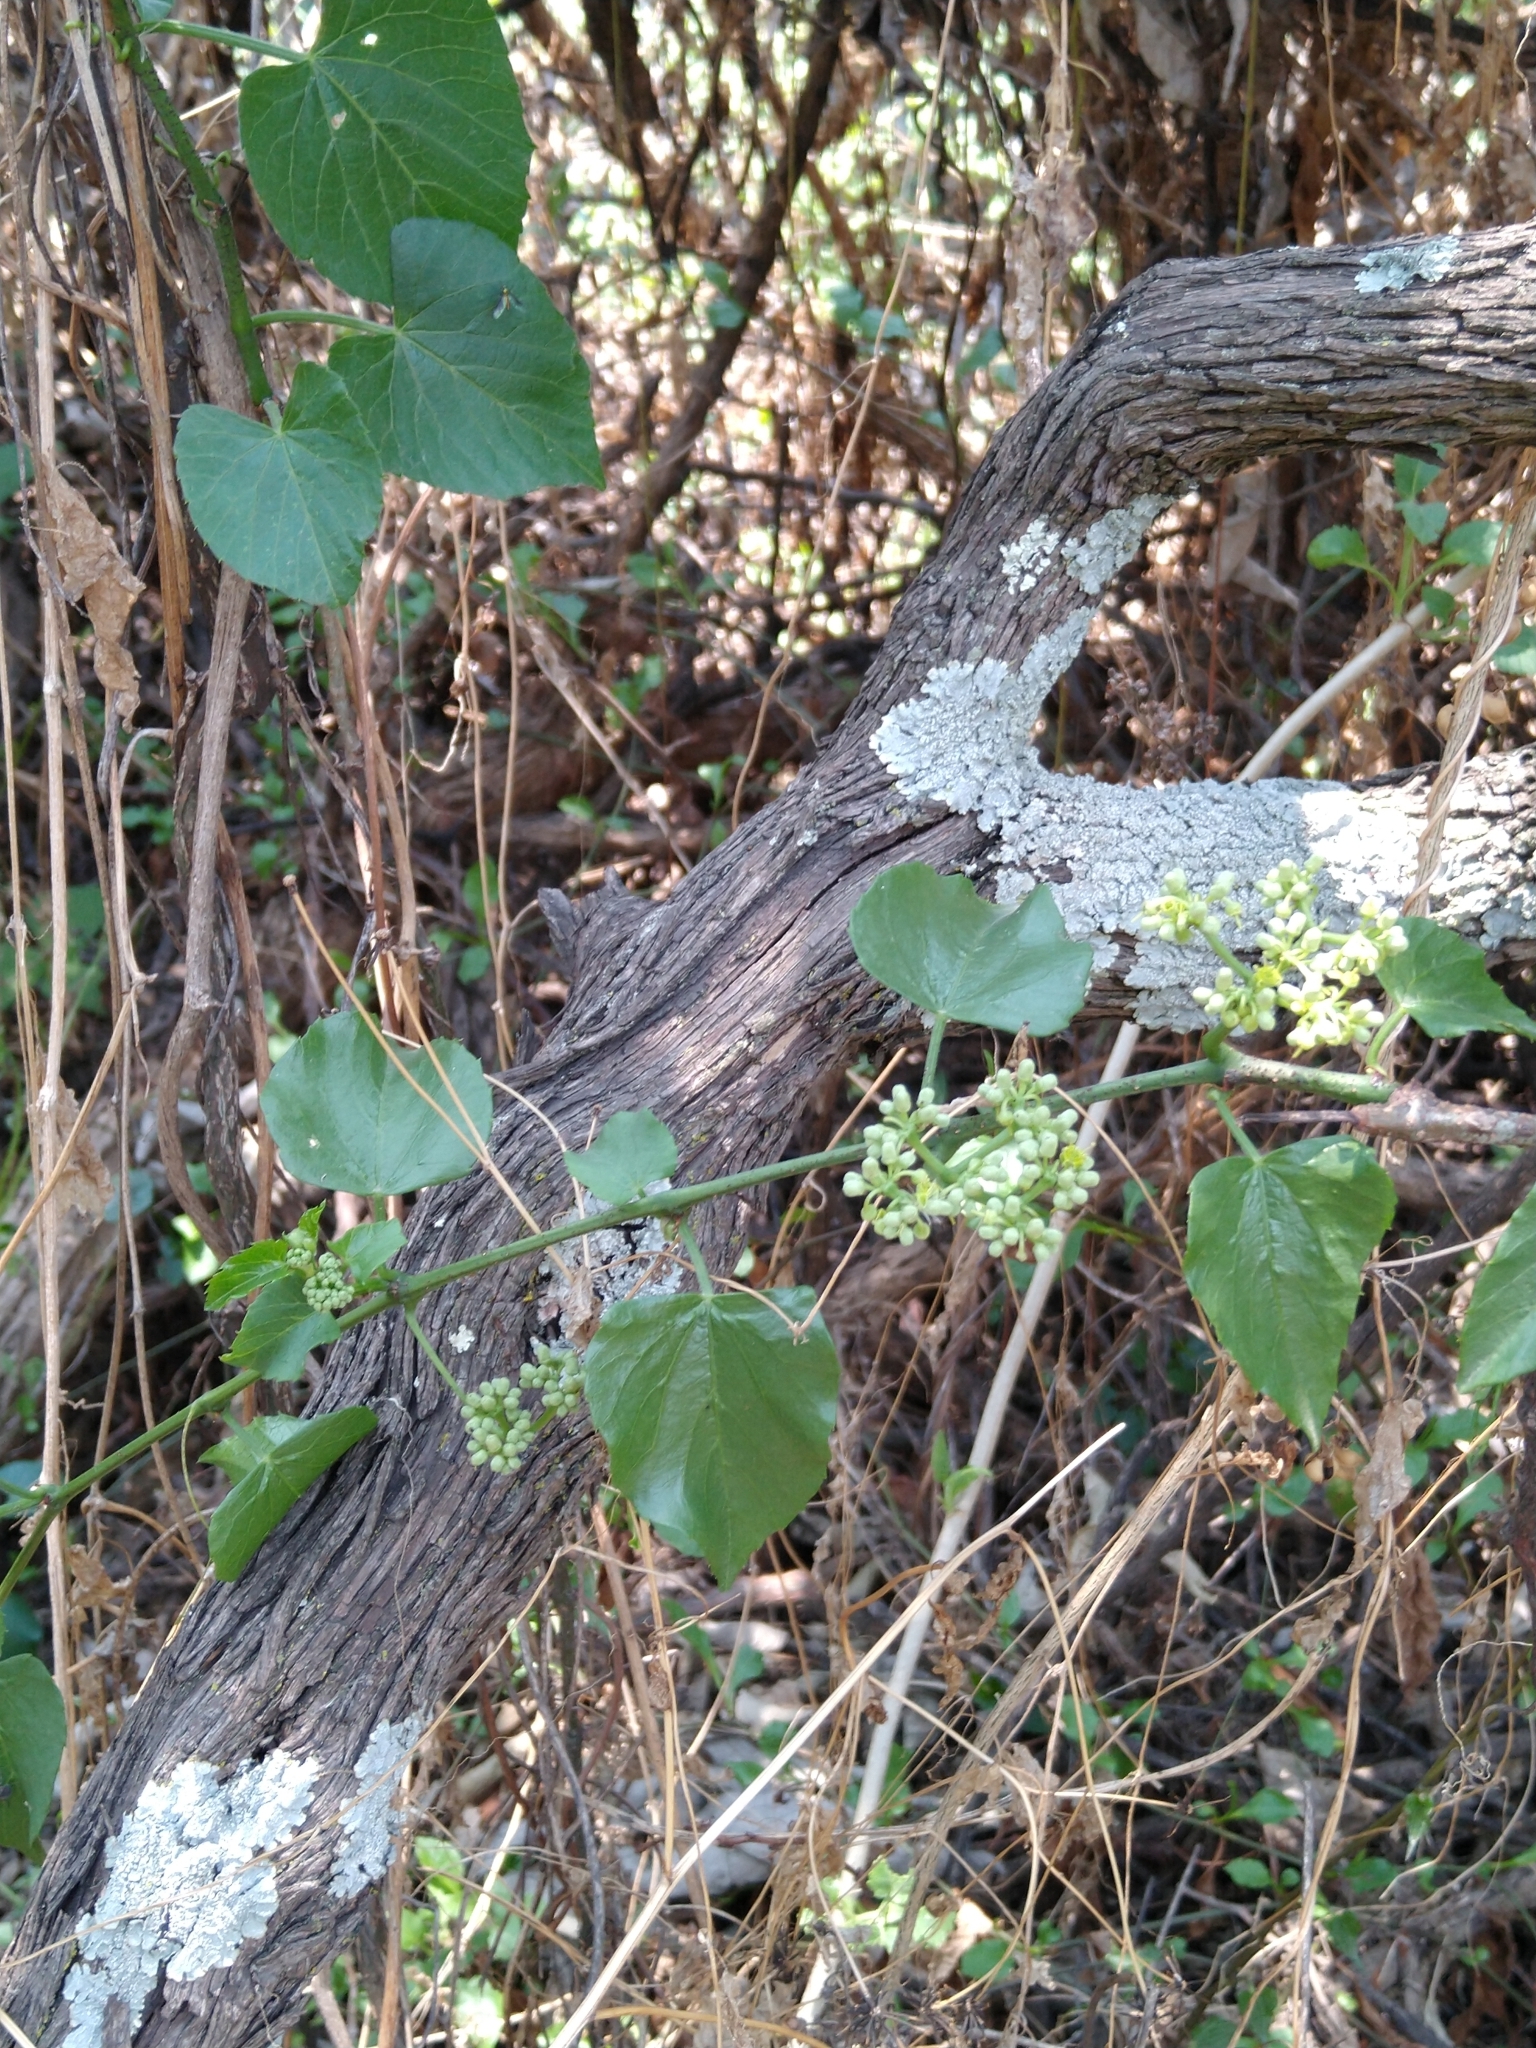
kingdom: Plantae
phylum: Tracheophyta
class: Magnoliopsida
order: Vitales
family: Vitaceae
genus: Cissus
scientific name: Cissus verticillata
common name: Princess vine
